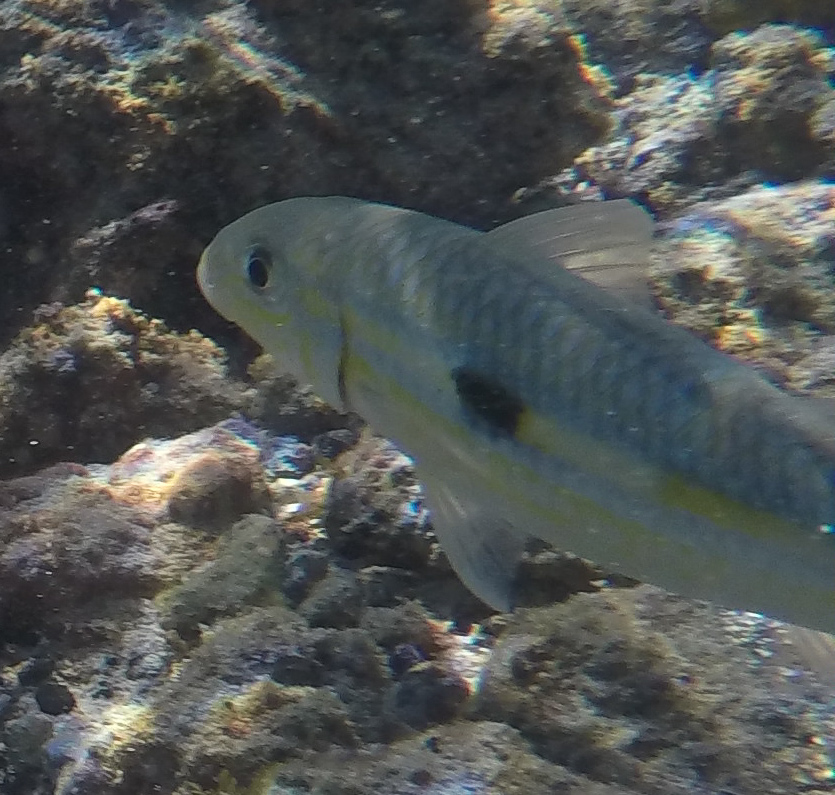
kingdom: Animalia
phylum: Chordata
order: Perciformes
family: Mullidae
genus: Mulloidichthys
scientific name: Mulloidichthys flavolineatus
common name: Yellowstripe goatfish
